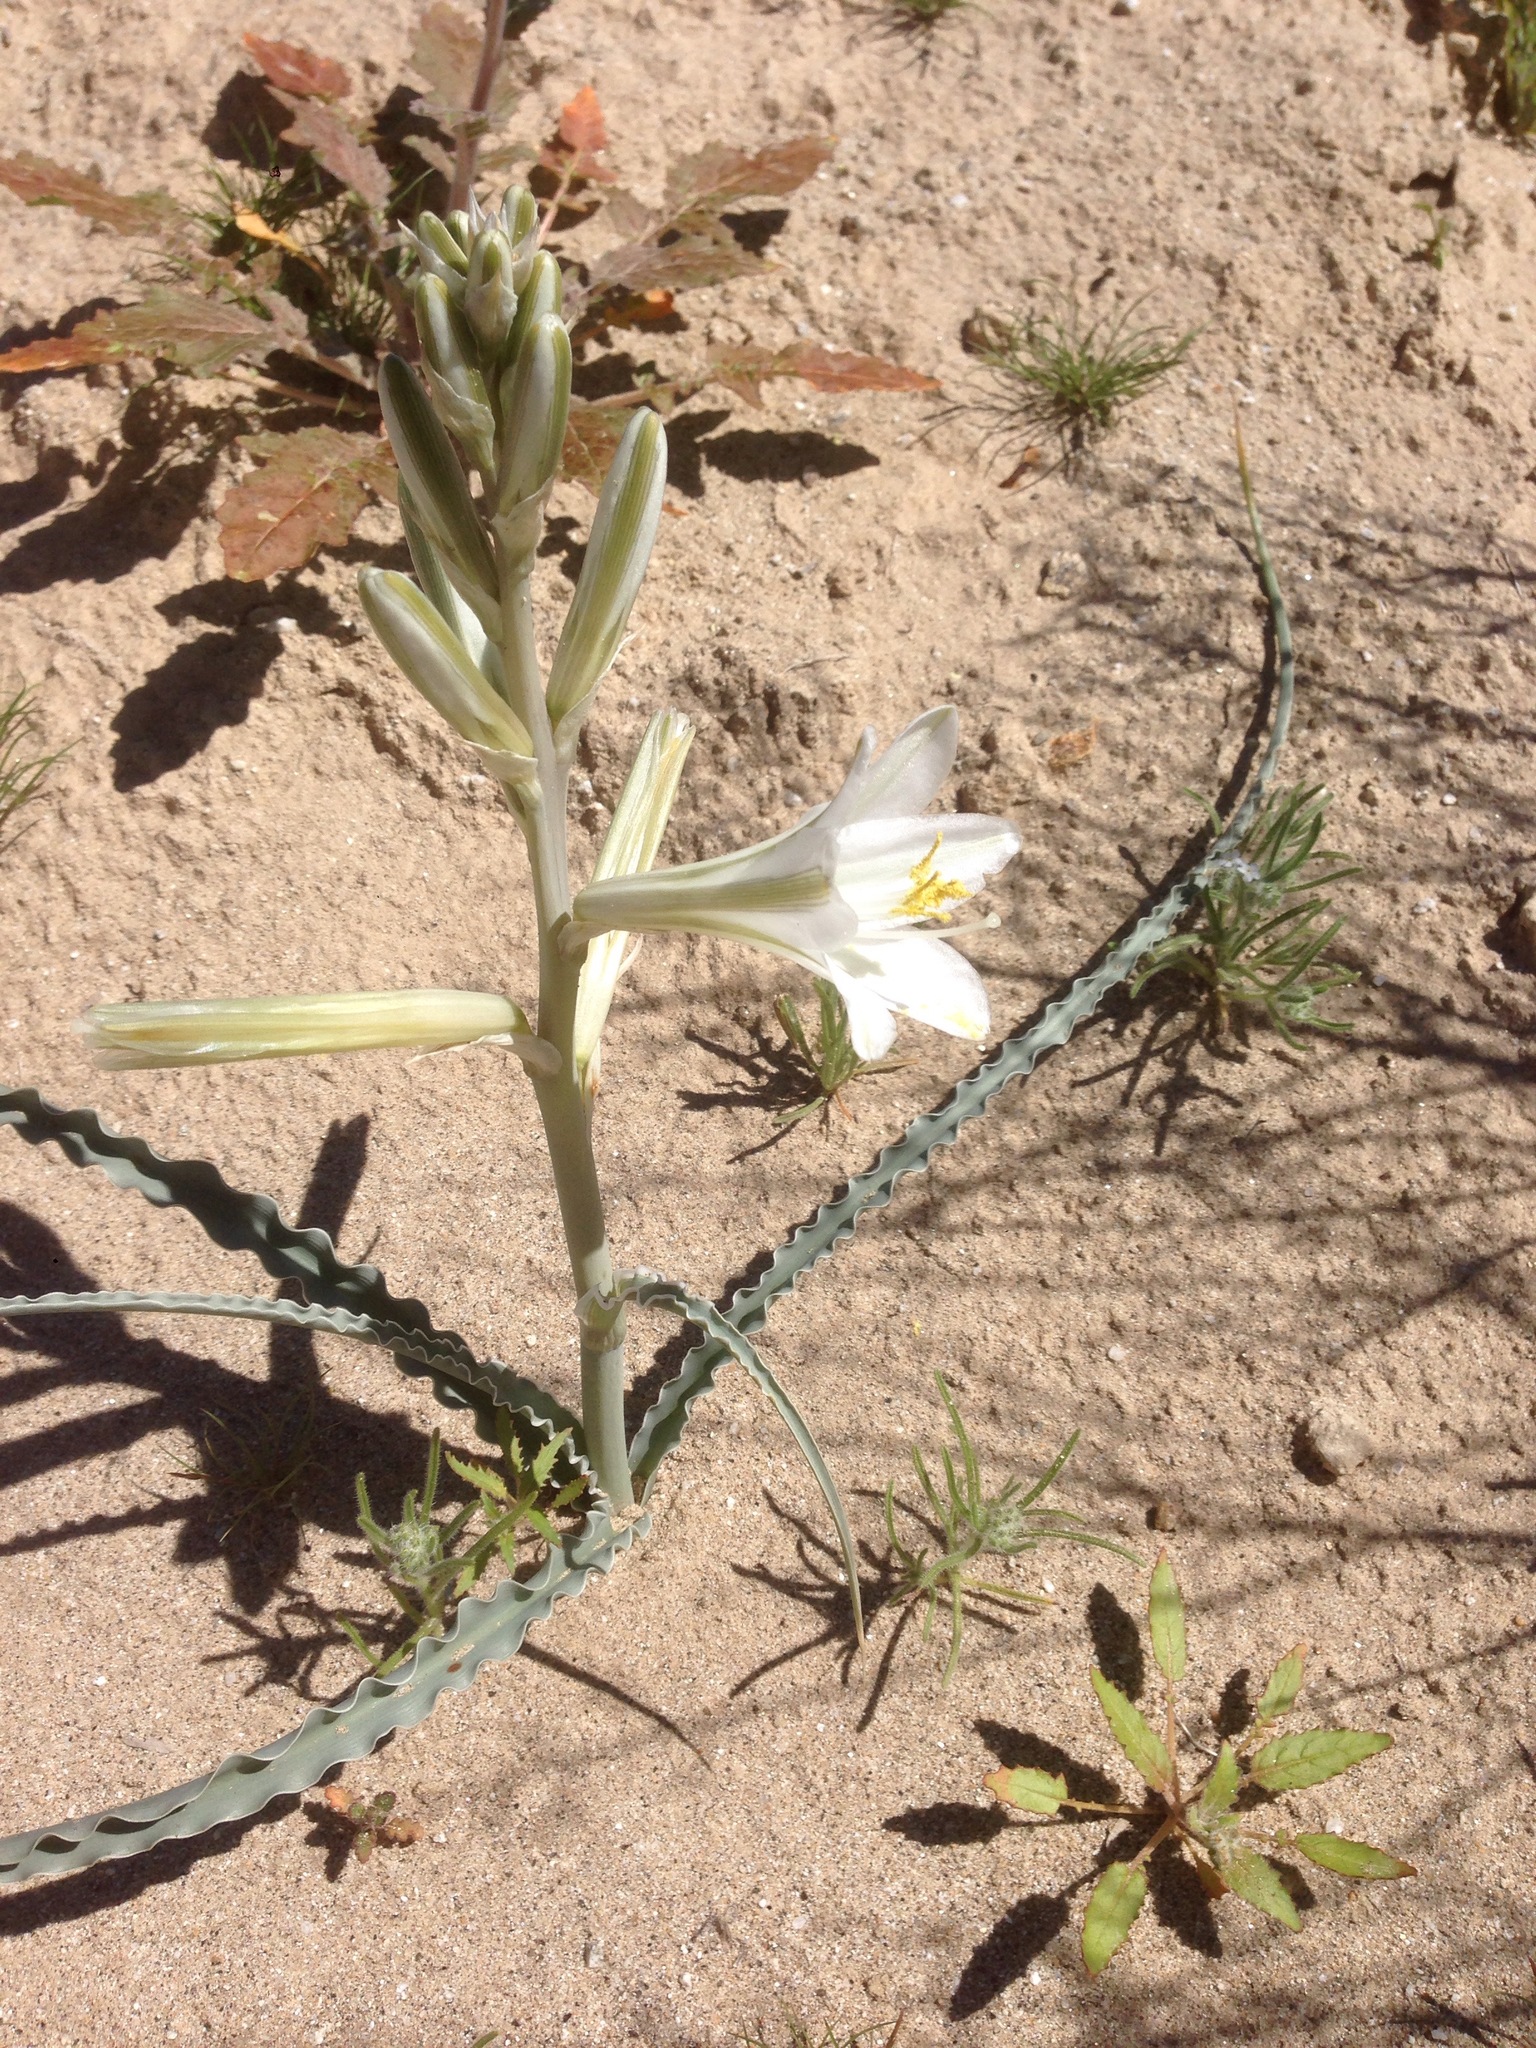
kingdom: Plantae
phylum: Tracheophyta
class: Liliopsida
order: Asparagales
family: Asparagaceae
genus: Hesperocallis
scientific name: Hesperocallis undulata
